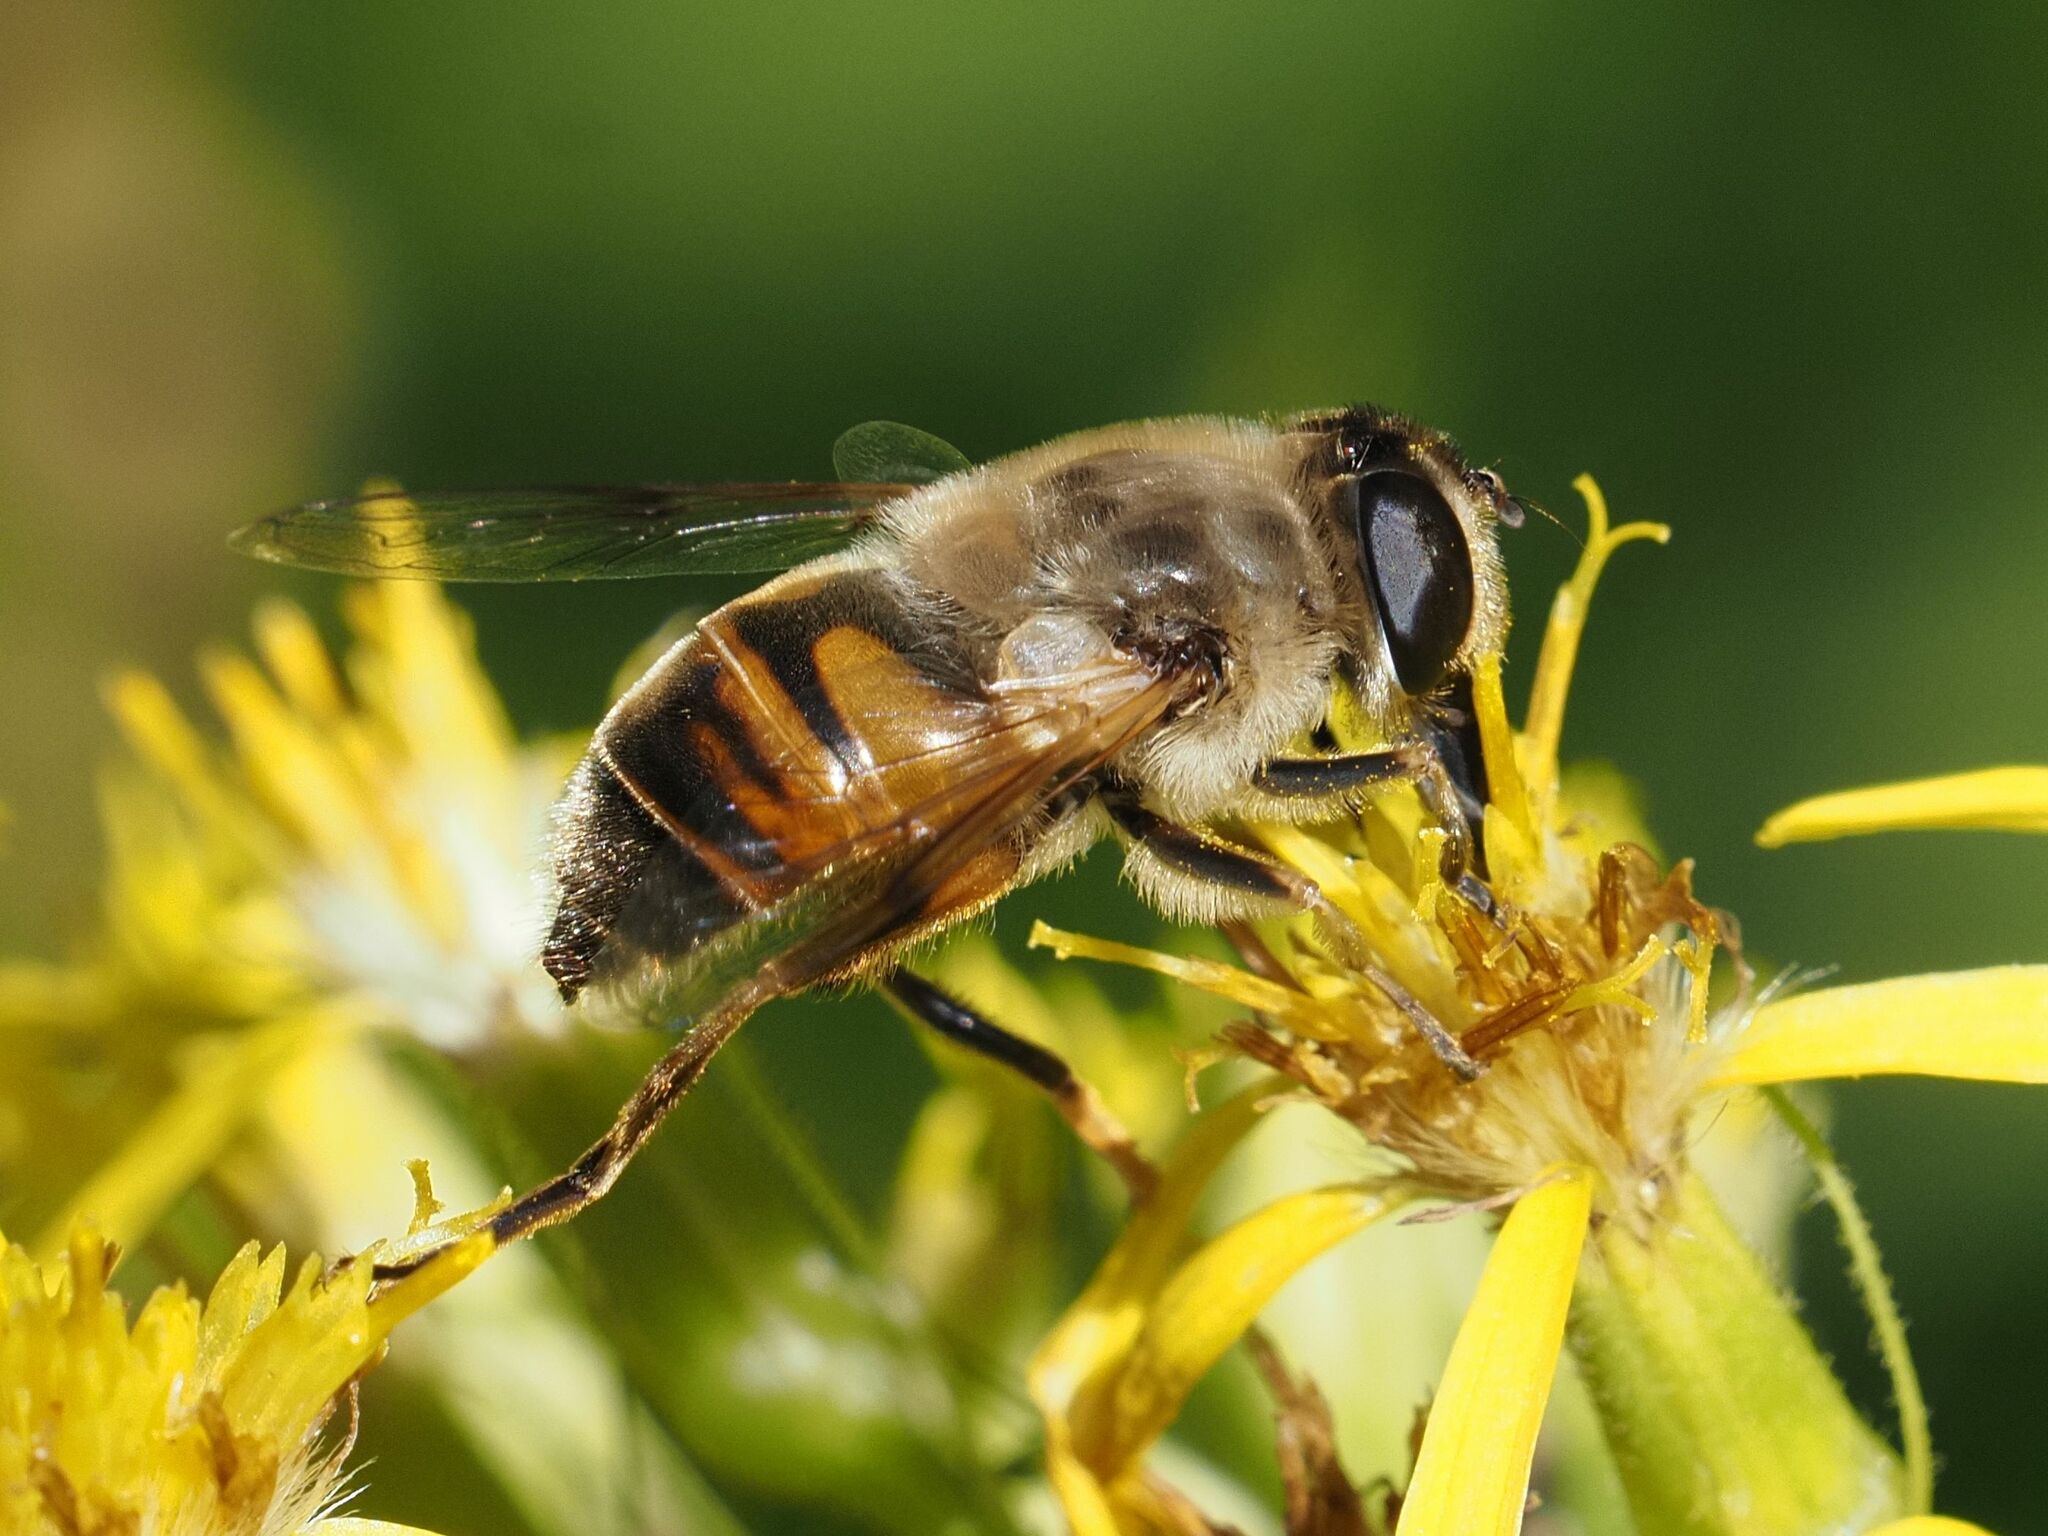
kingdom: Animalia
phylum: Arthropoda
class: Insecta
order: Diptera
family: Syrphidae
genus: Eristalis
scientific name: Eristalis tenax
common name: Drone fly
